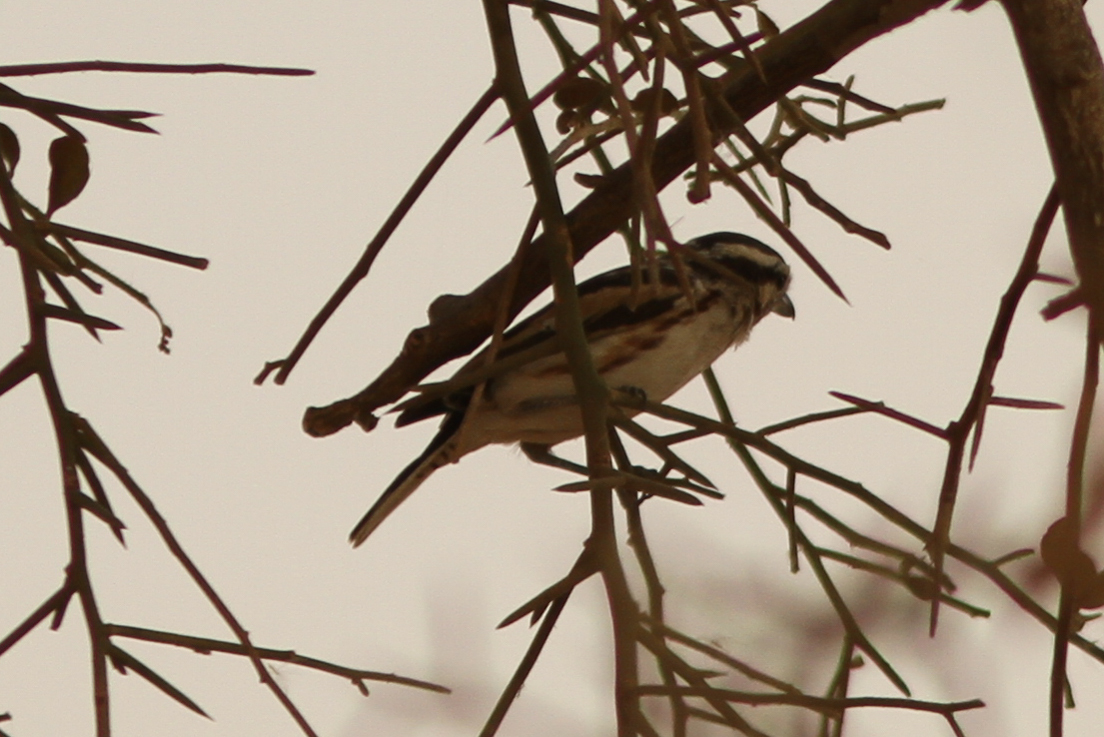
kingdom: Animalia
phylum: Chordata
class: Aves
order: Passeriformes
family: Malaconotidae
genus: Nilaus
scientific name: Nilaus afer
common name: Brubru
